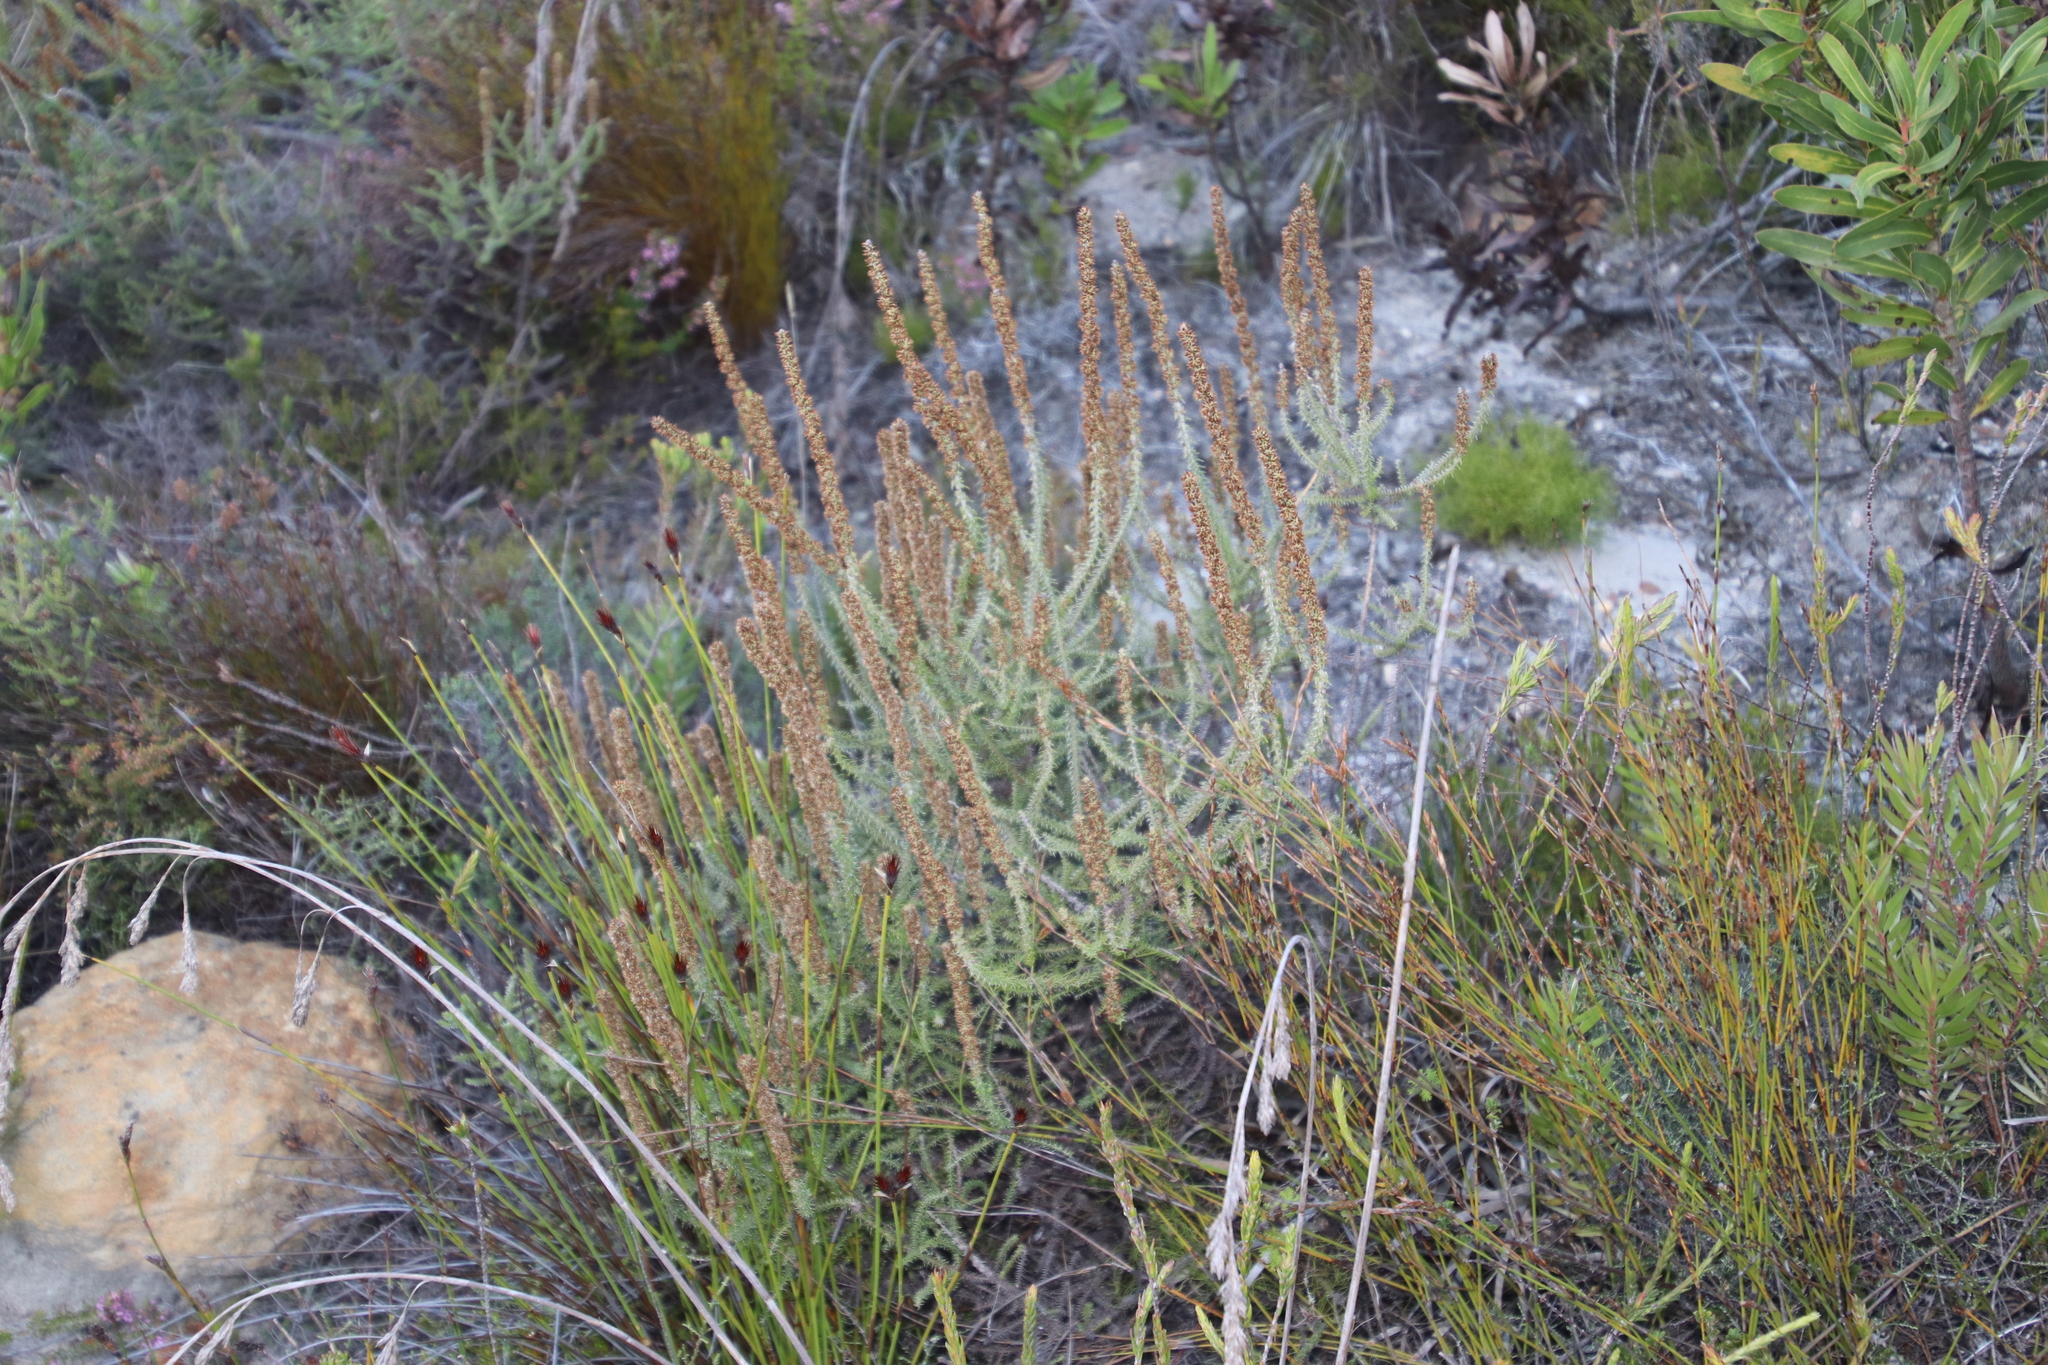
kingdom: Plantae
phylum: Tracheophyta
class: Magnoliopsida
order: Asterales
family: Asteraceae
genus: Seriphium
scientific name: Seriphium cinereum
